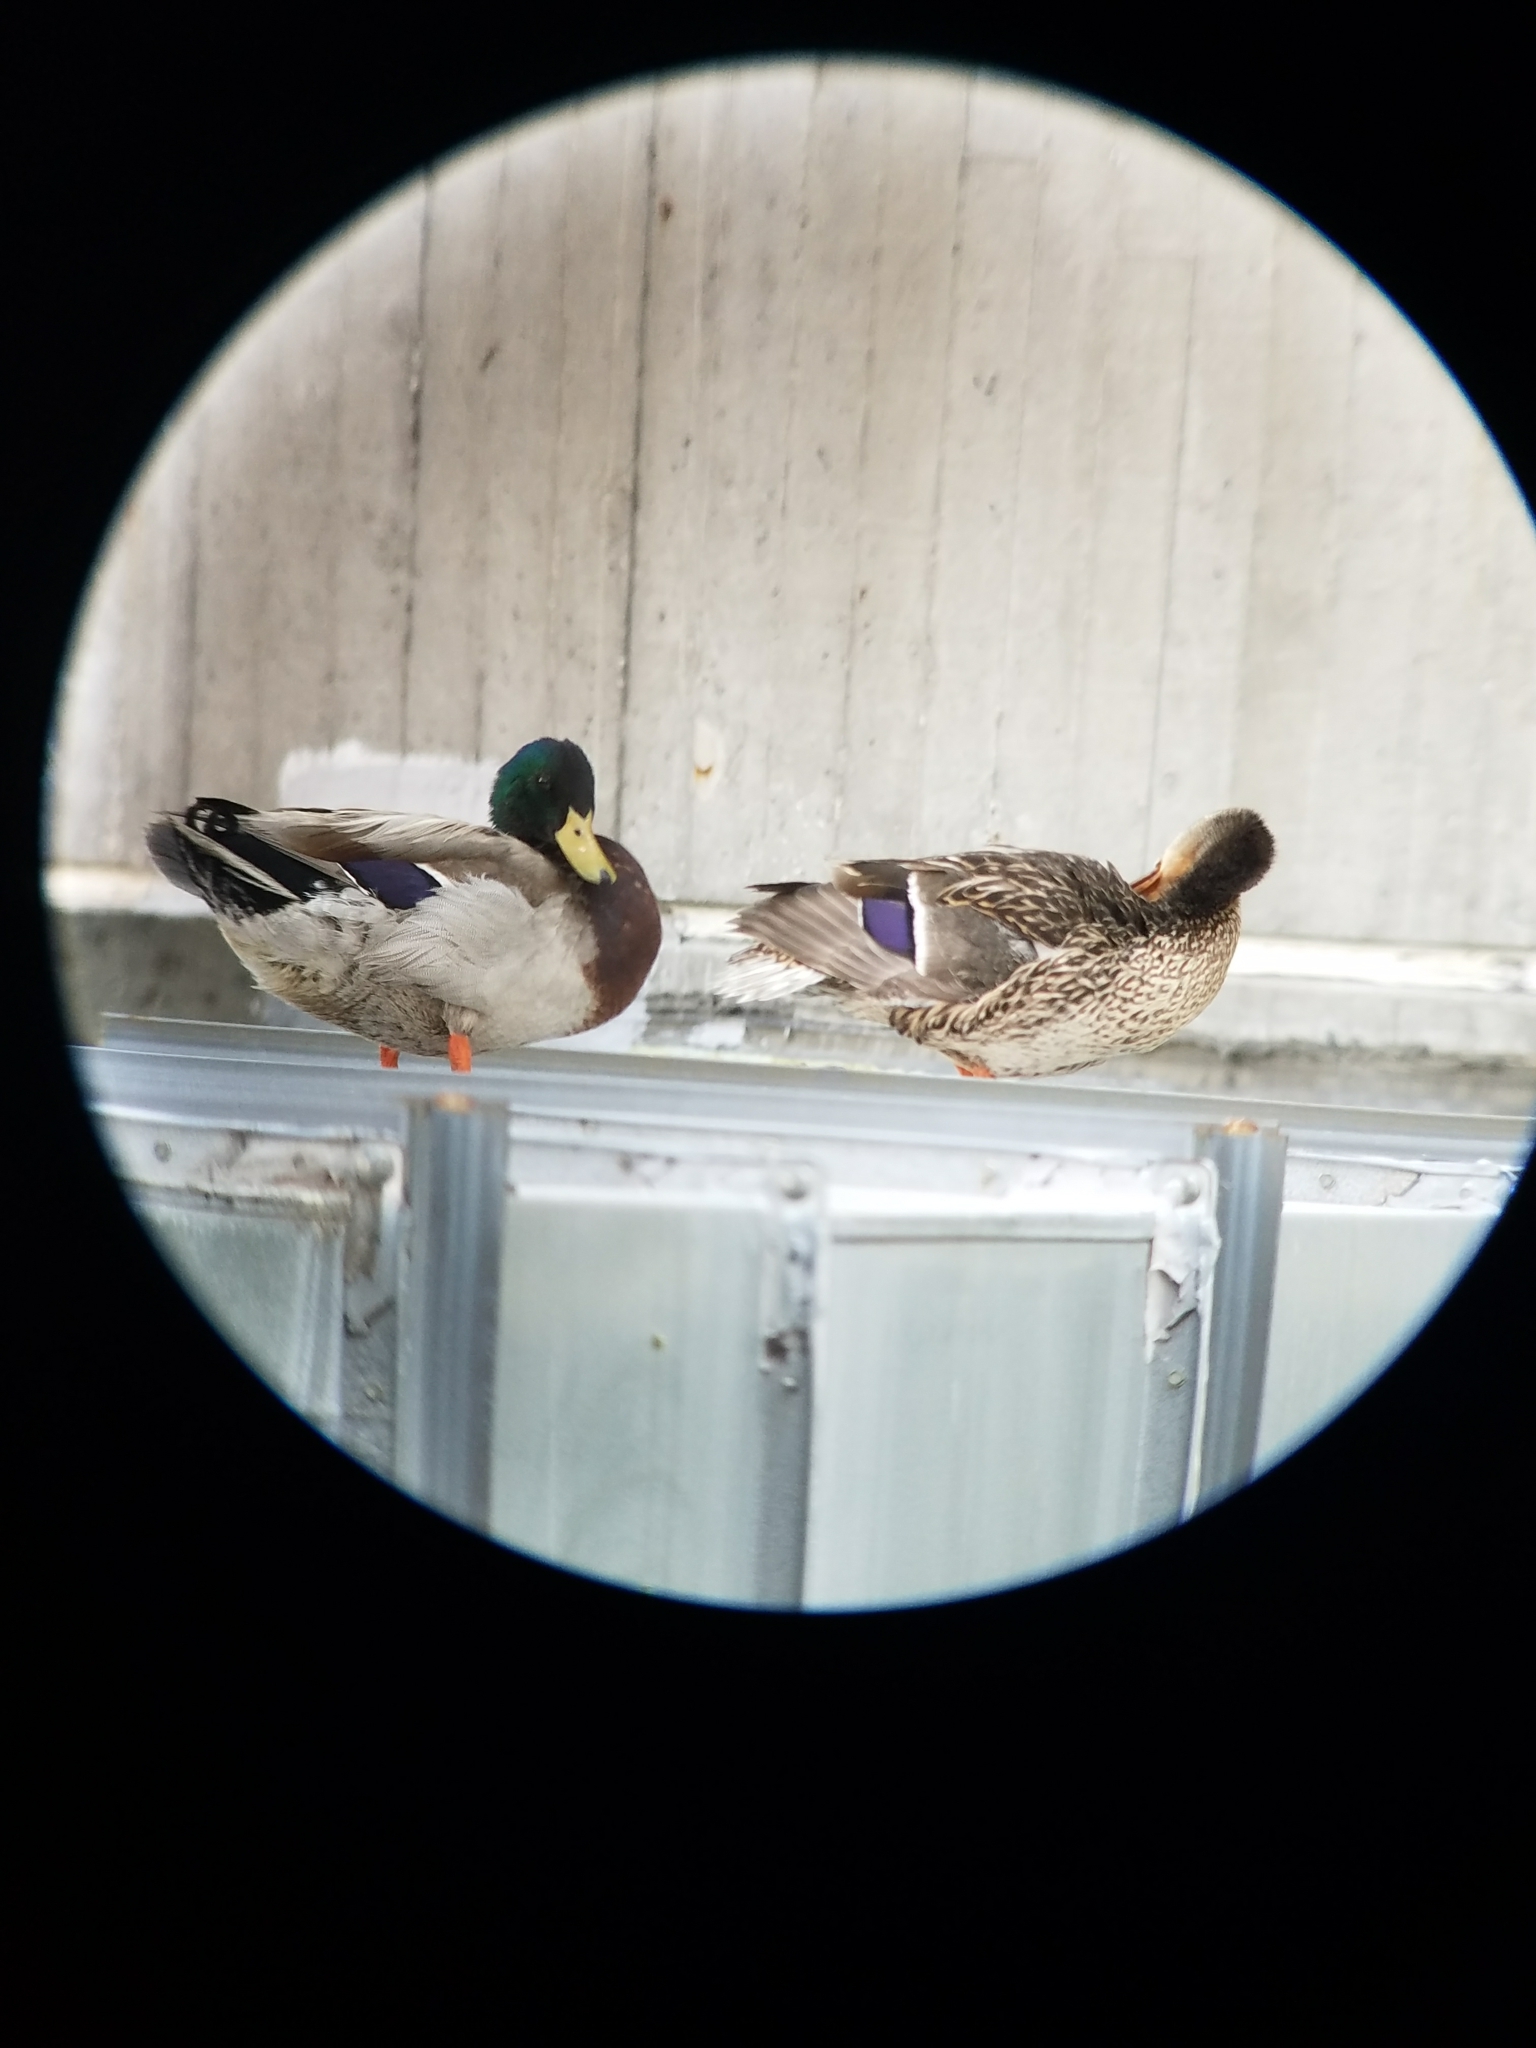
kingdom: Animalia
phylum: Chordata
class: Aves
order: Anseriformes
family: Anatidae
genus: Anas
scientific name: Anas platyrhynchos
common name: Mallard
